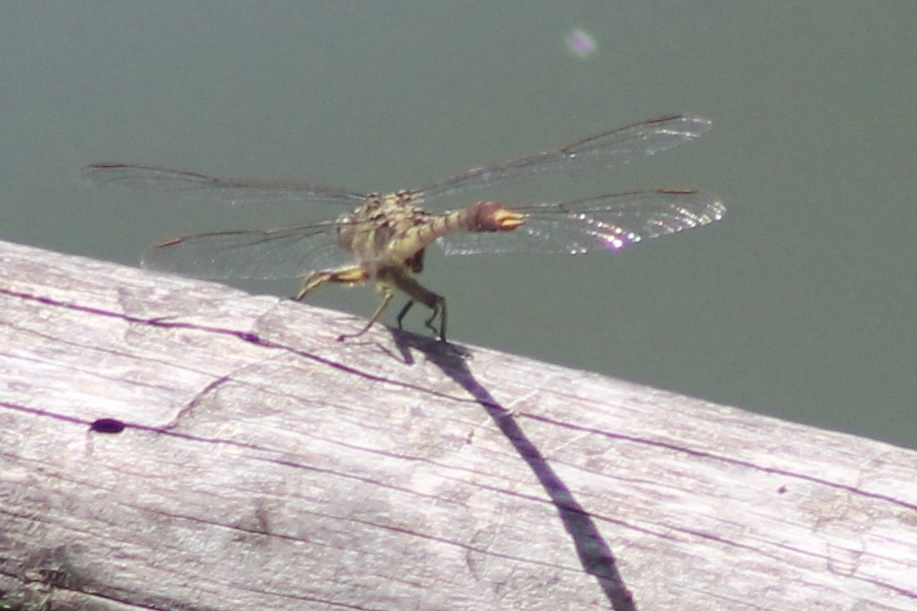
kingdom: Animalia
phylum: Arthropoda
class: Insecta
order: Odonata
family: Gomphidae
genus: Arigomphus
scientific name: Arigomphus submedianus
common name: Jade clubtail
